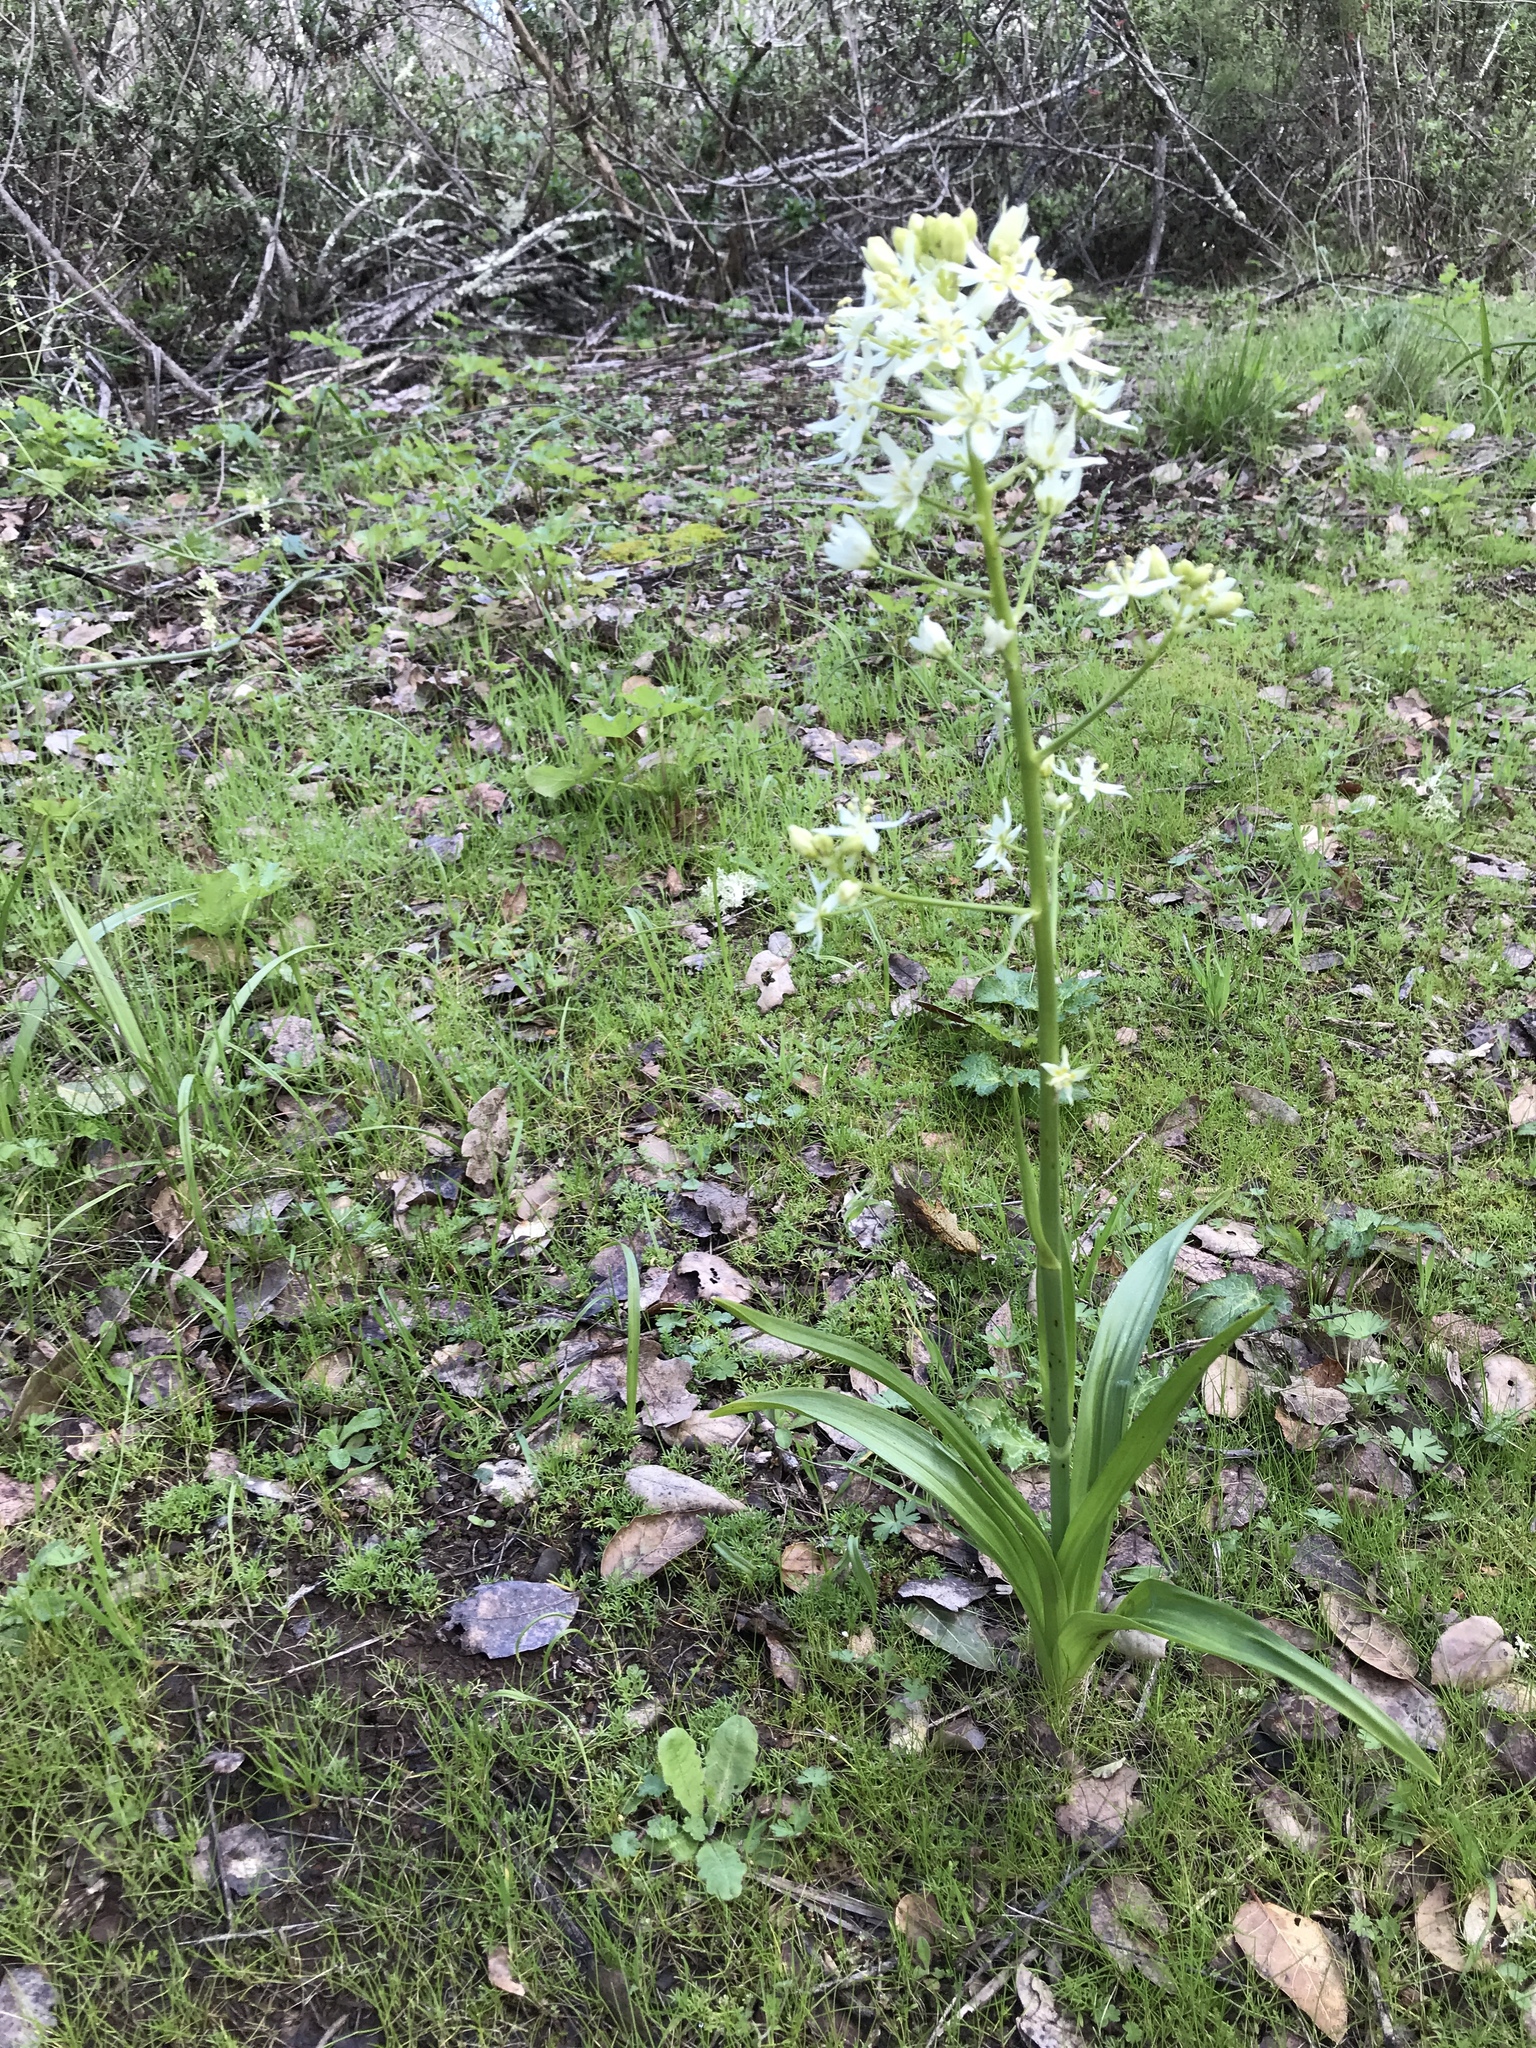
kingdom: Plantae
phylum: Tracheophyta
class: Liliopsida
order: Liliales
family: Melanthiaceae
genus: Toxicoscordion
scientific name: Toxicoscordion fremontii
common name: Fremont's death camas
